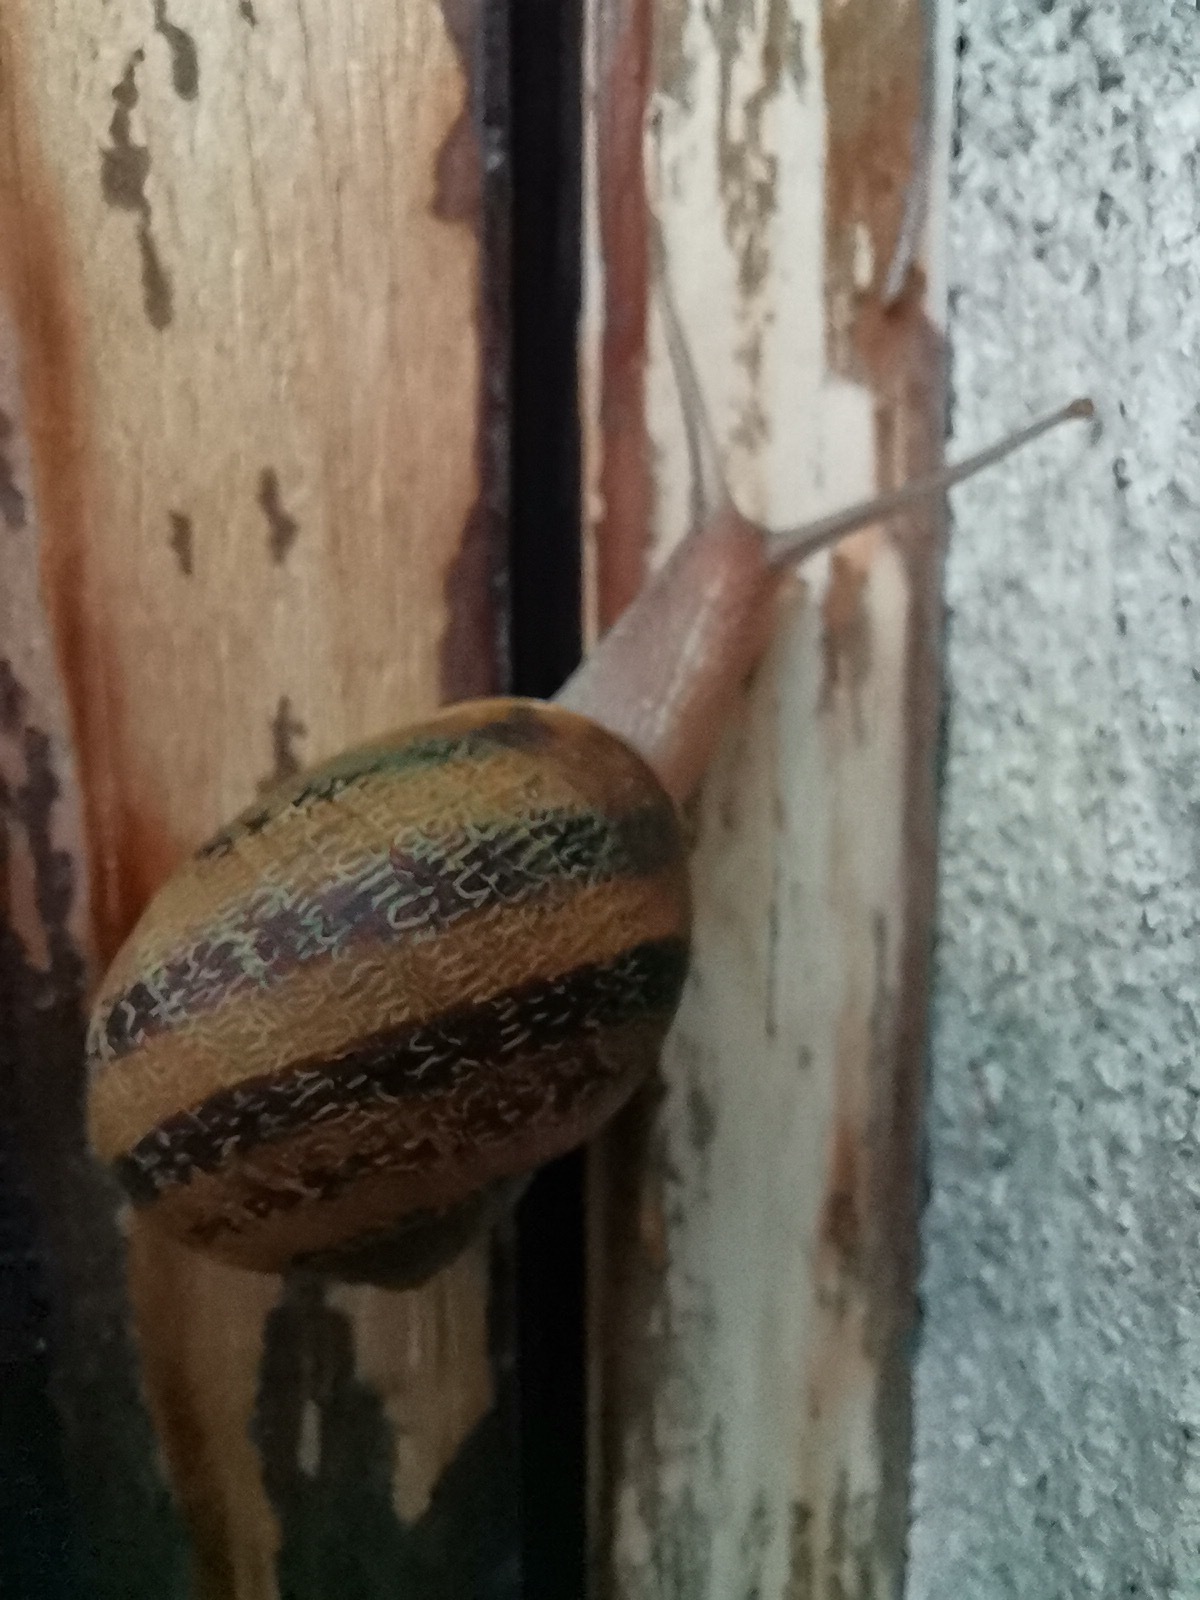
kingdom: Animalia
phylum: Mollusca
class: Gastropoda
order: Stylommatophora
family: Helicidae
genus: Cornu
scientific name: Cornu aspersum
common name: Brown garden snail
